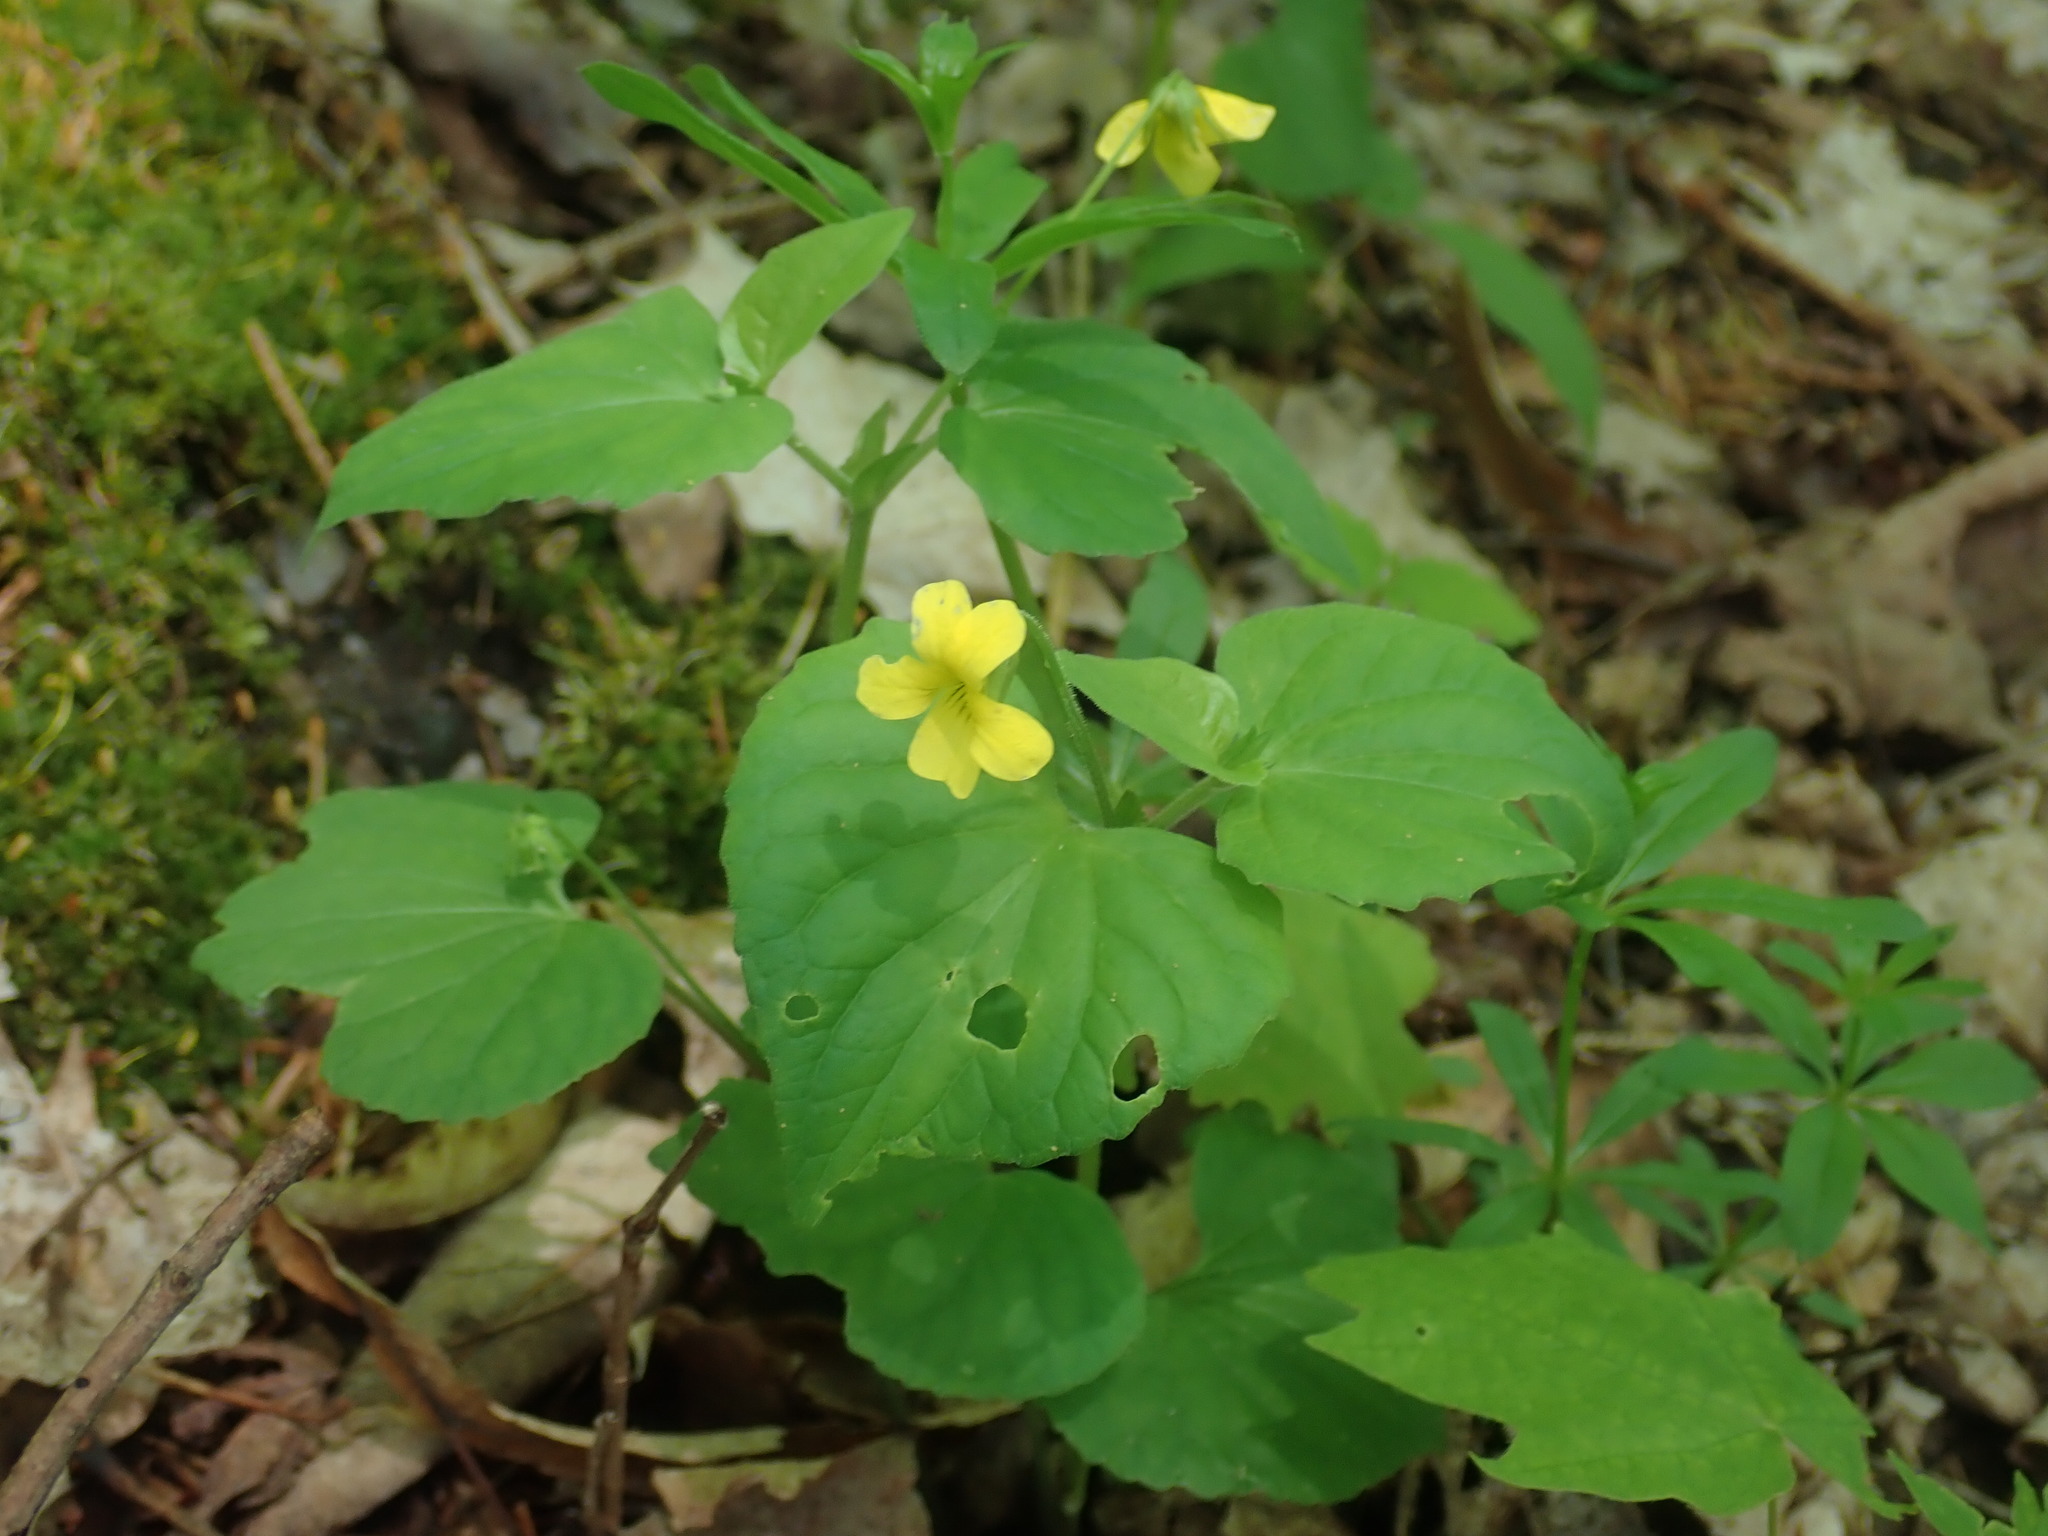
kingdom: Plantae
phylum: Tracheophyta
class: Magnoliopsida
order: Malpighiales
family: Violaceae
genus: Viola
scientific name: Viola eriocarpa
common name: Smooth yellow violet
